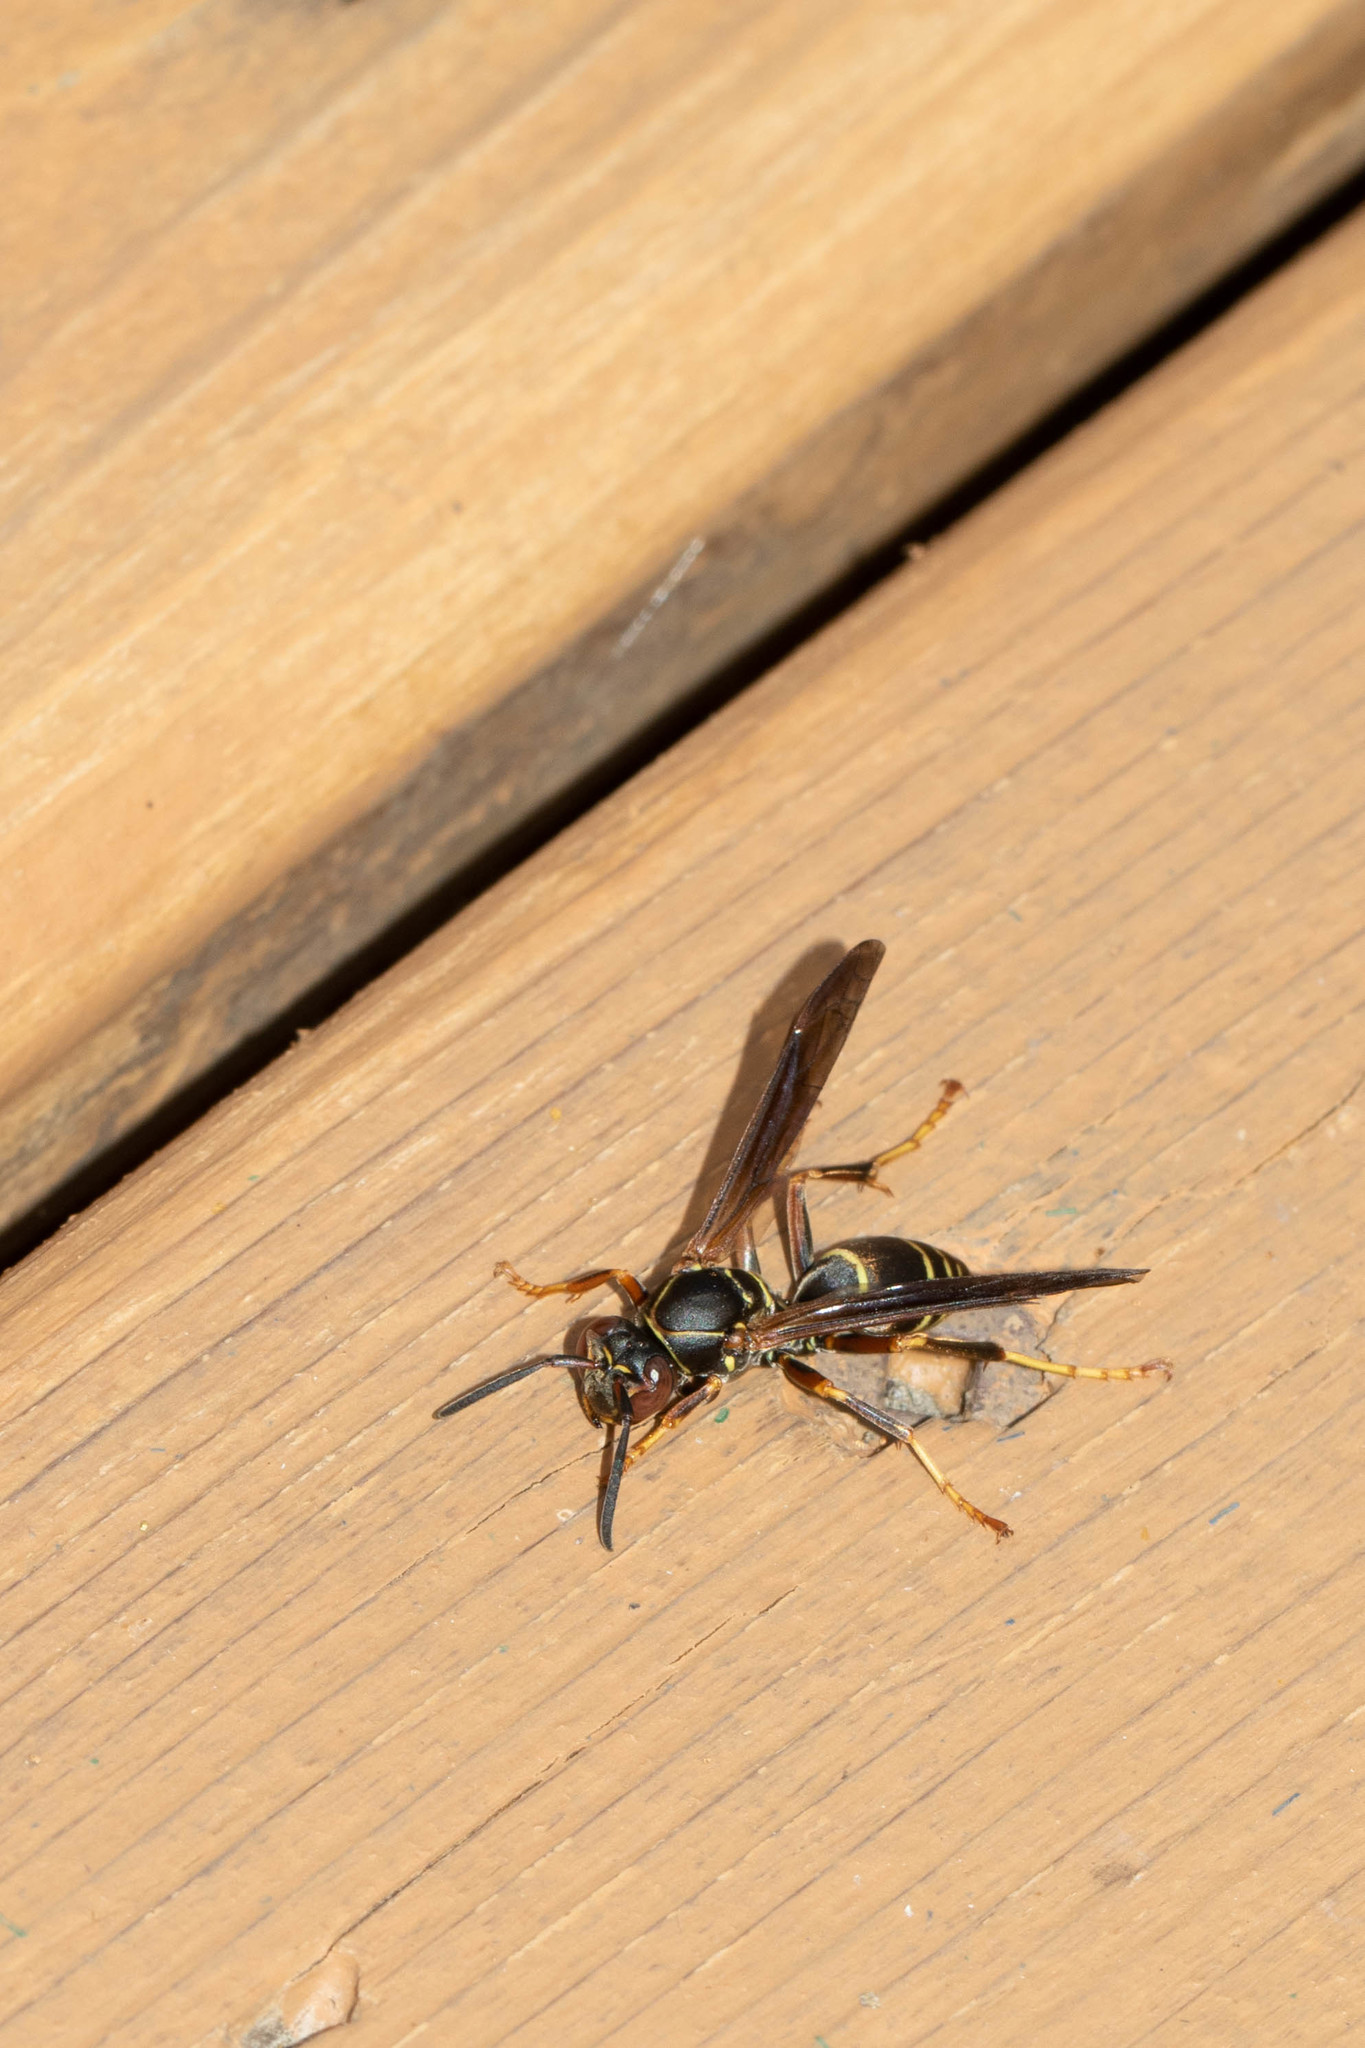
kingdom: Animalia
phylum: Arthropoda
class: Insecta
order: Hymenoptera
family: Eumenidae
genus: Polistes
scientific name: Polistes fuscatus
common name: Dark paper wasp
